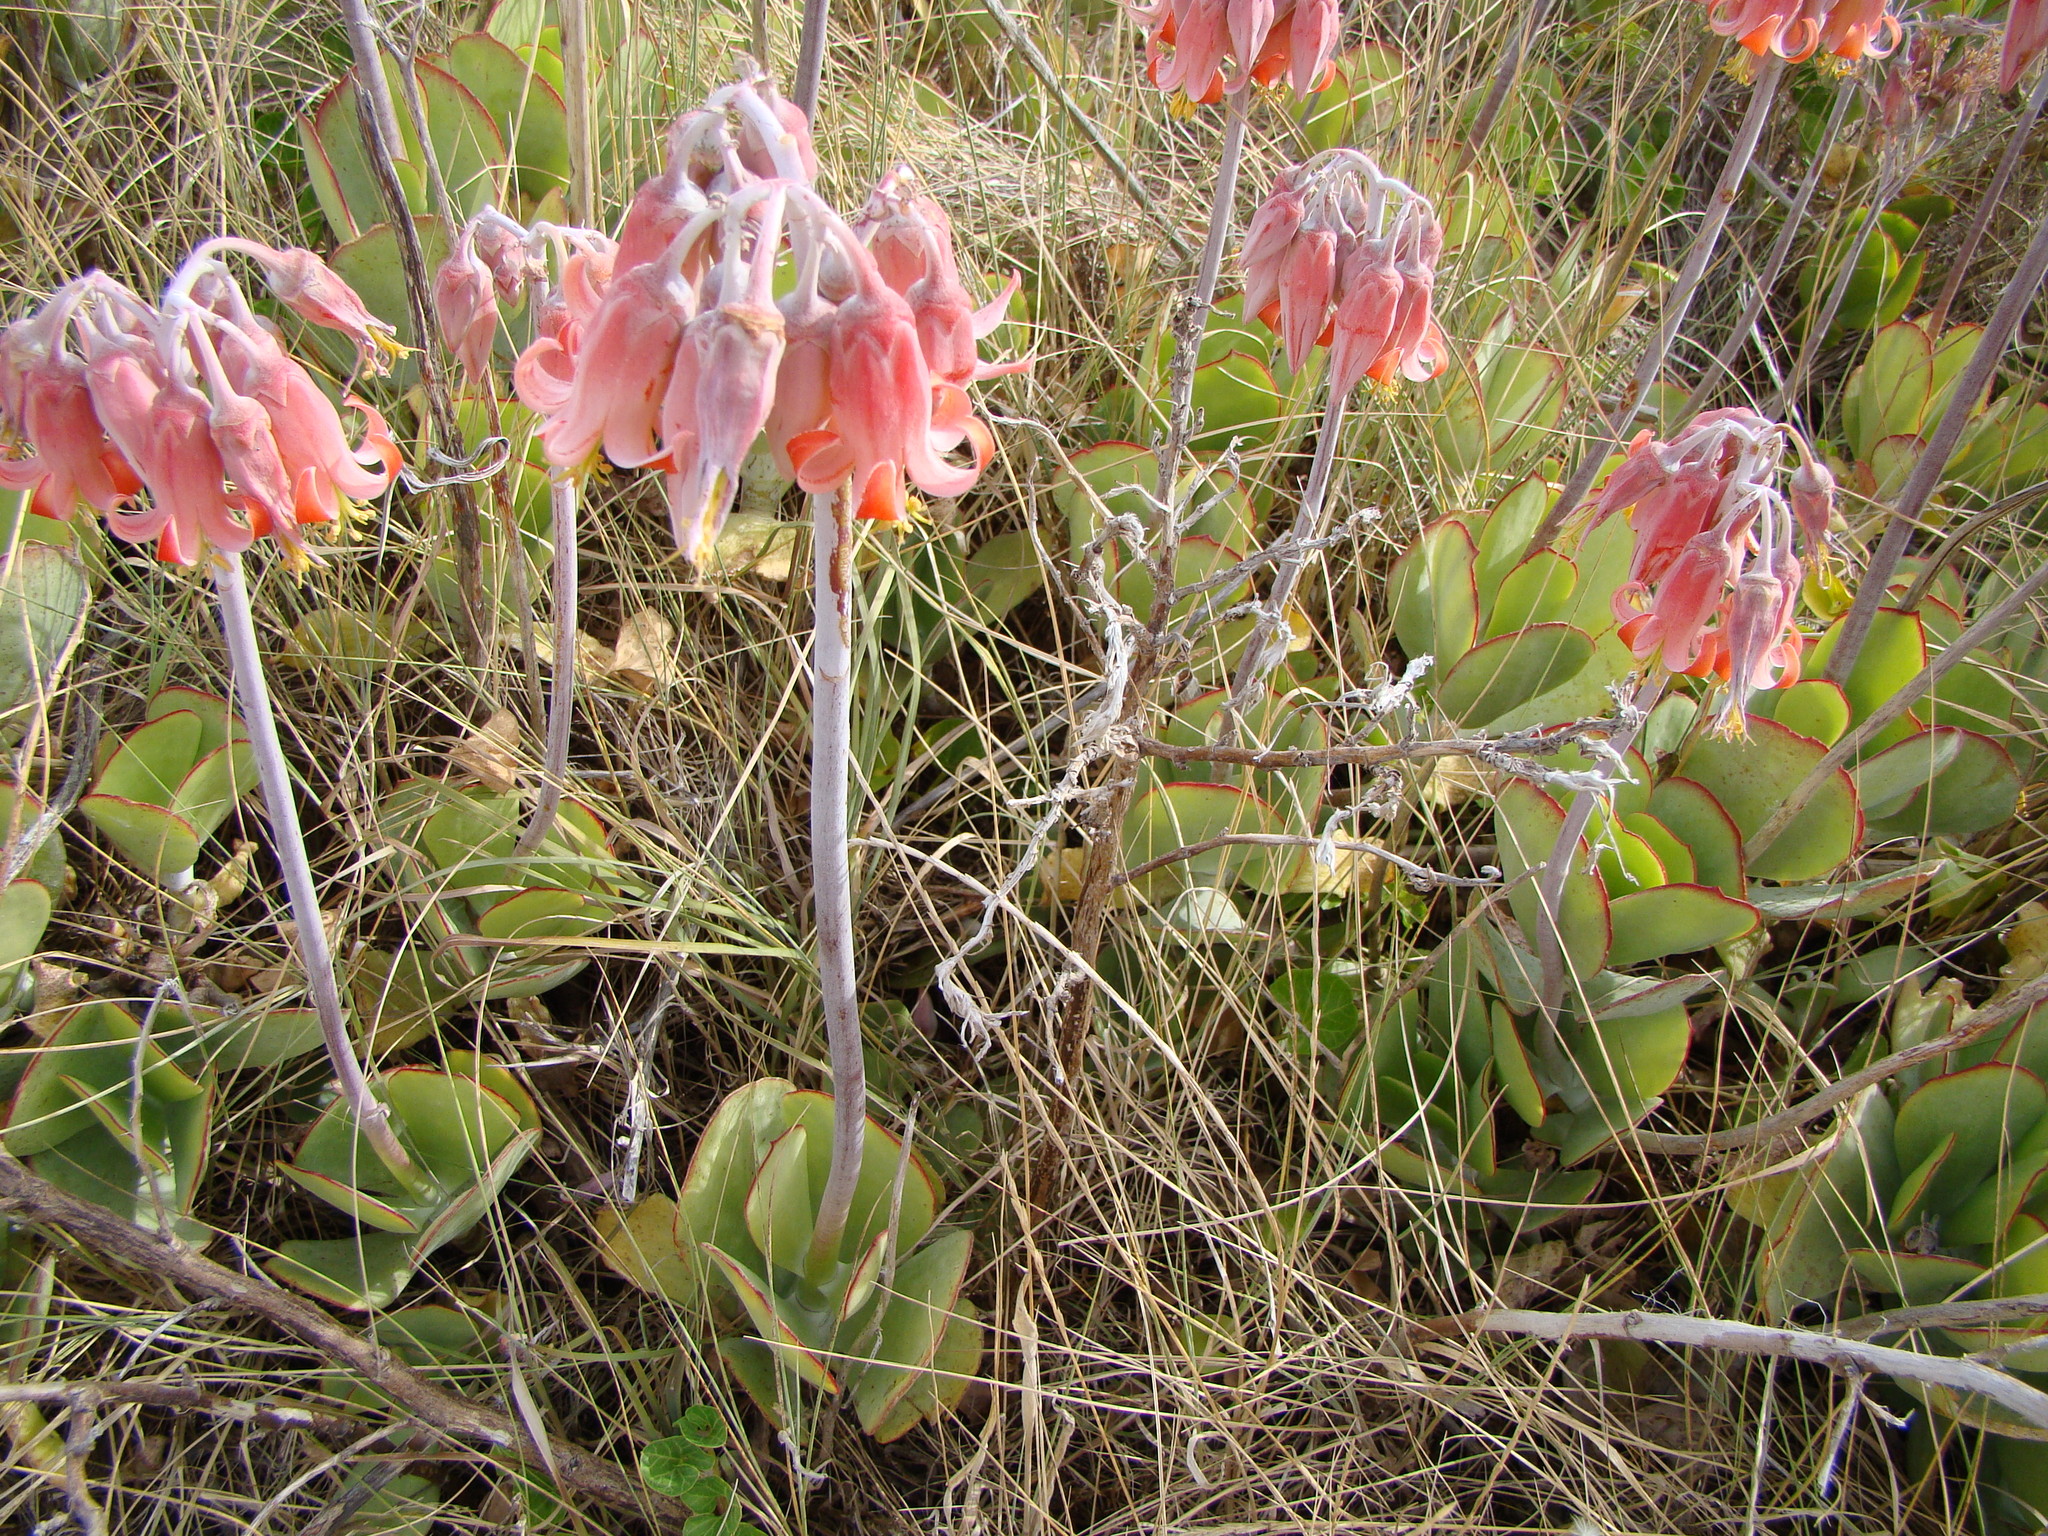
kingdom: Plantae
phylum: Tracheophyta
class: Magnoliopsida
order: Saxifragales
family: Crassulaceae
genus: Cotyledon
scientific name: Cotyledon orbiculata
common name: Pig's ear
